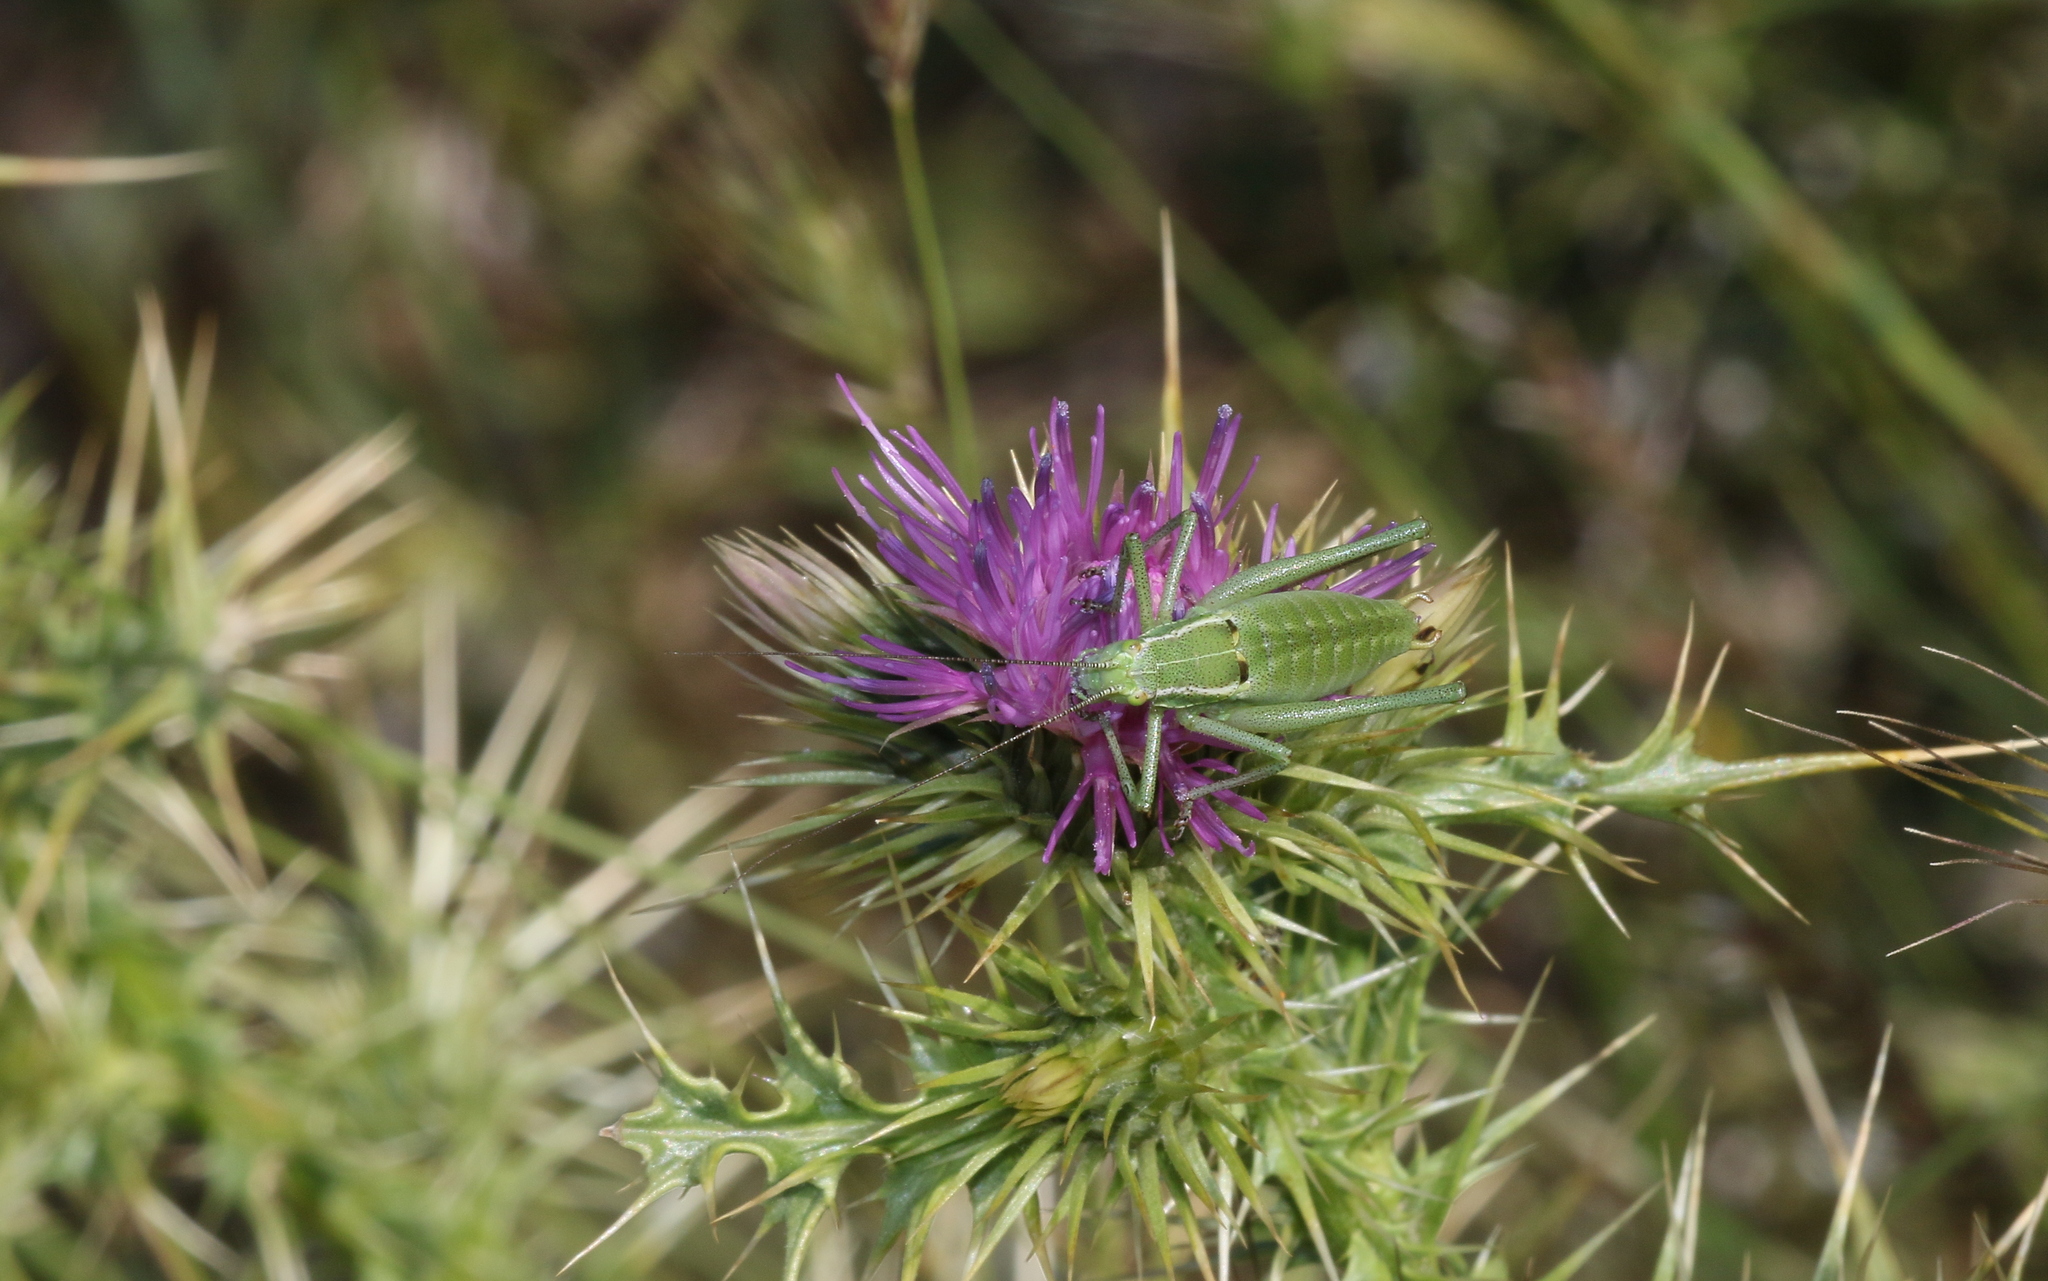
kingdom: Animalia
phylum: Arthropoda
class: Insecta
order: Orthoptera
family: Tettigoniidae
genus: Poecilimon
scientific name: Poecilimon zimmeri
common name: Zimmer's bright bush-cricket
